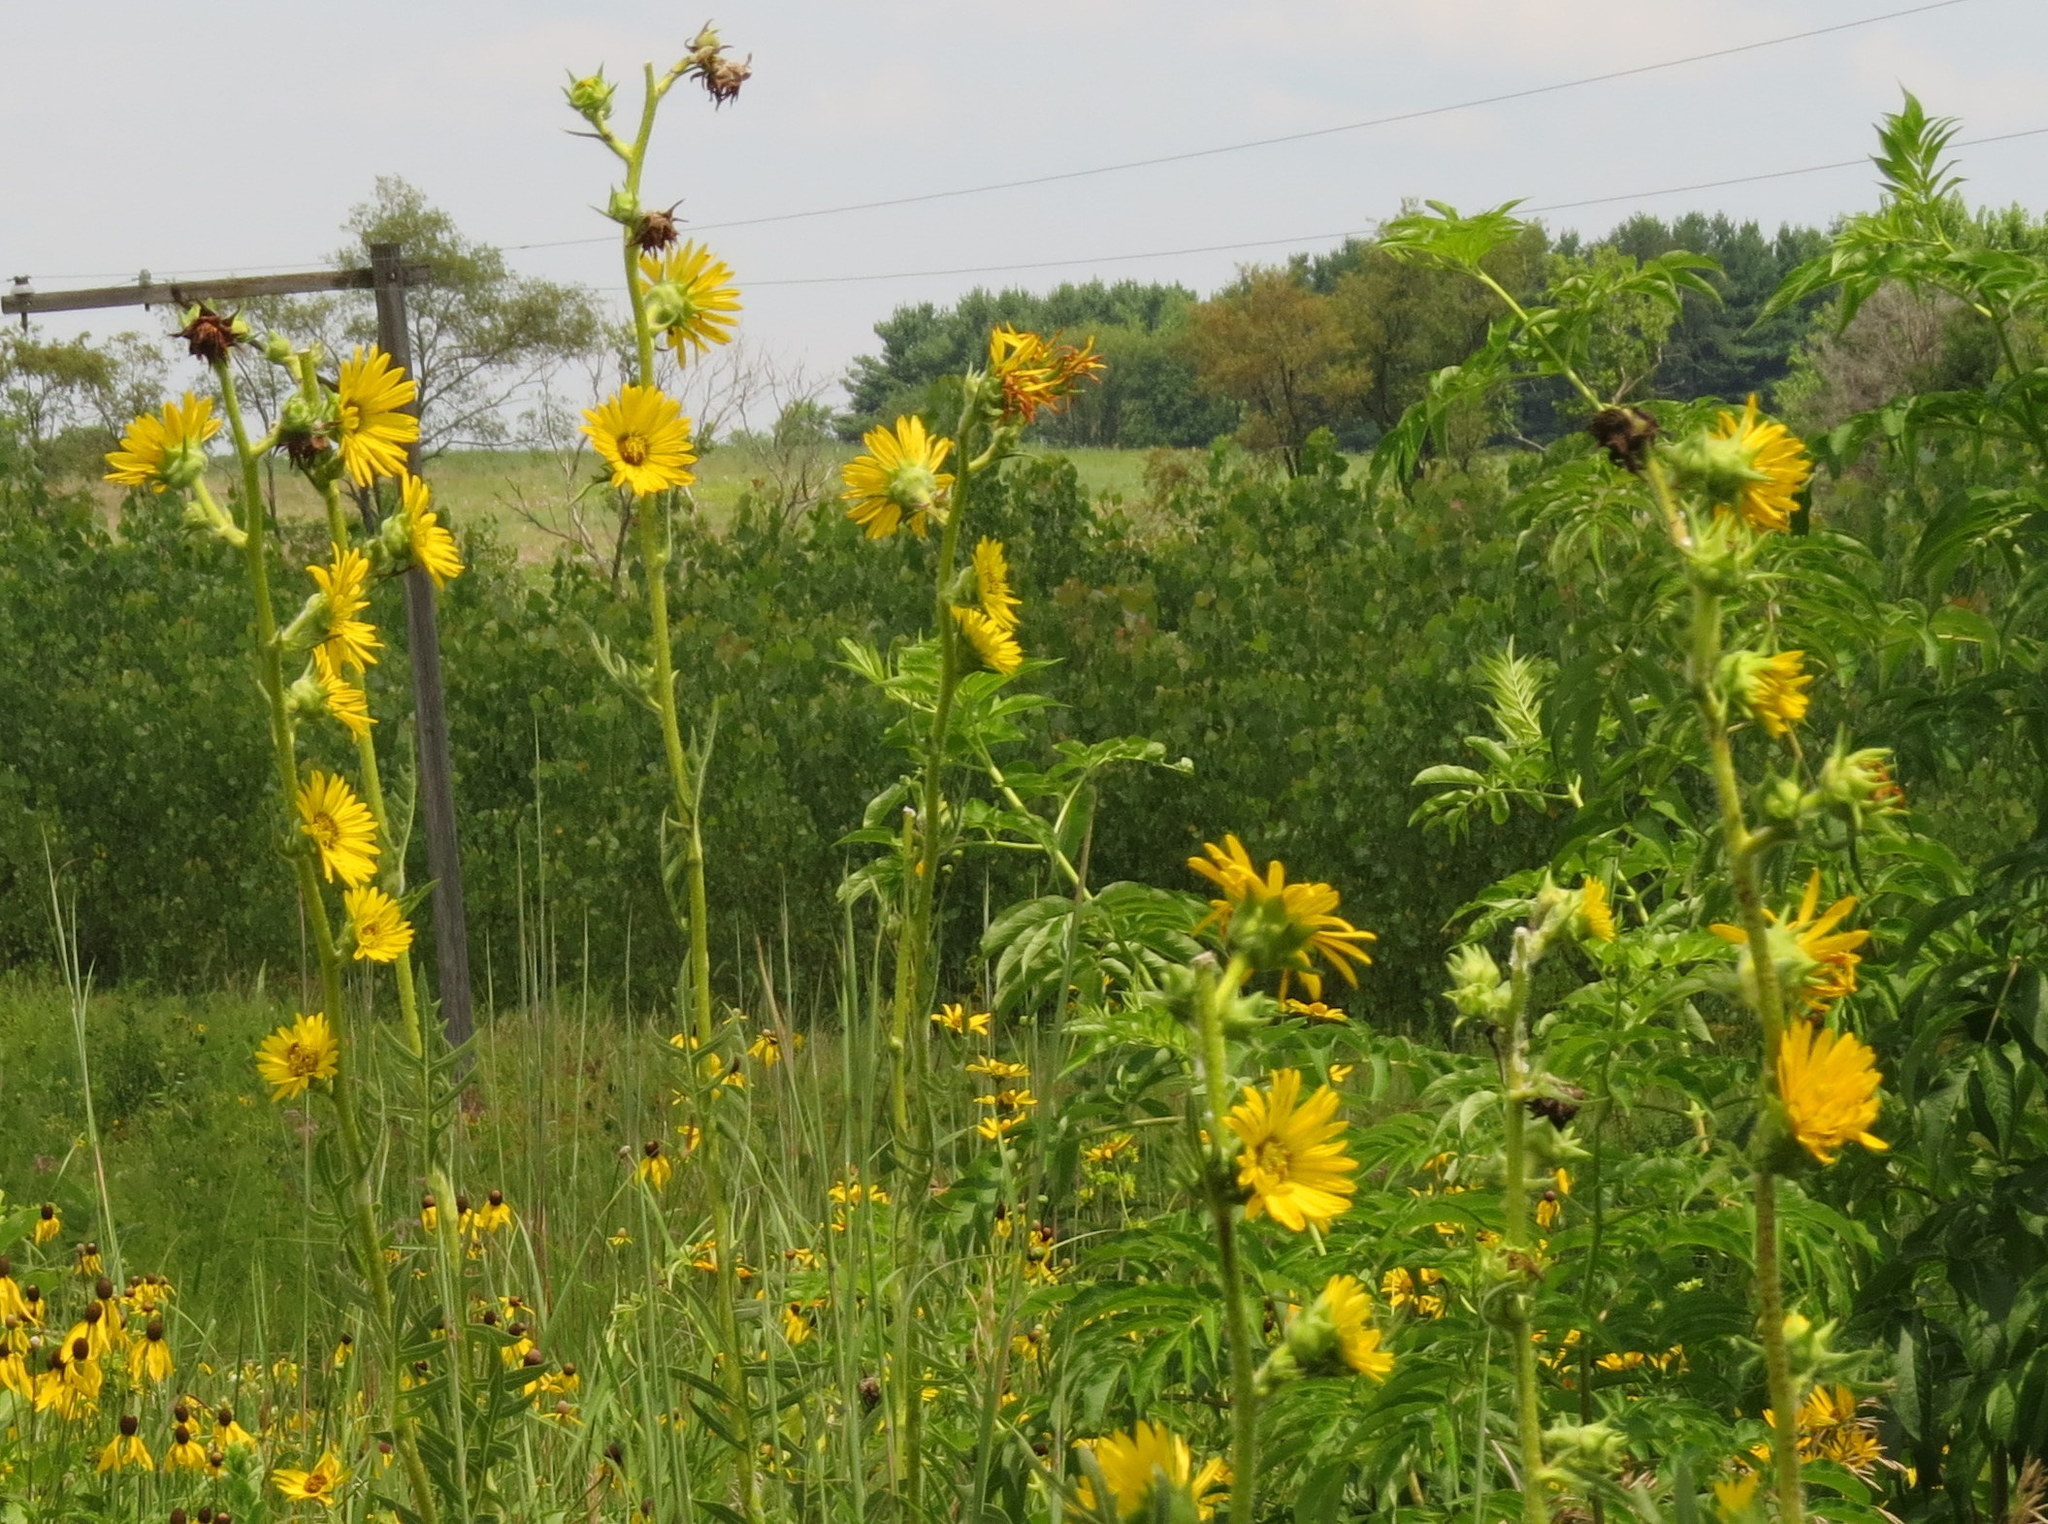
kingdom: Plantae
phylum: Tracheophyta
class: Magnoliopsida
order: Asterales
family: Asteraceae
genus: Silphium
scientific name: Silphium laciniatum
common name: Polarplant
